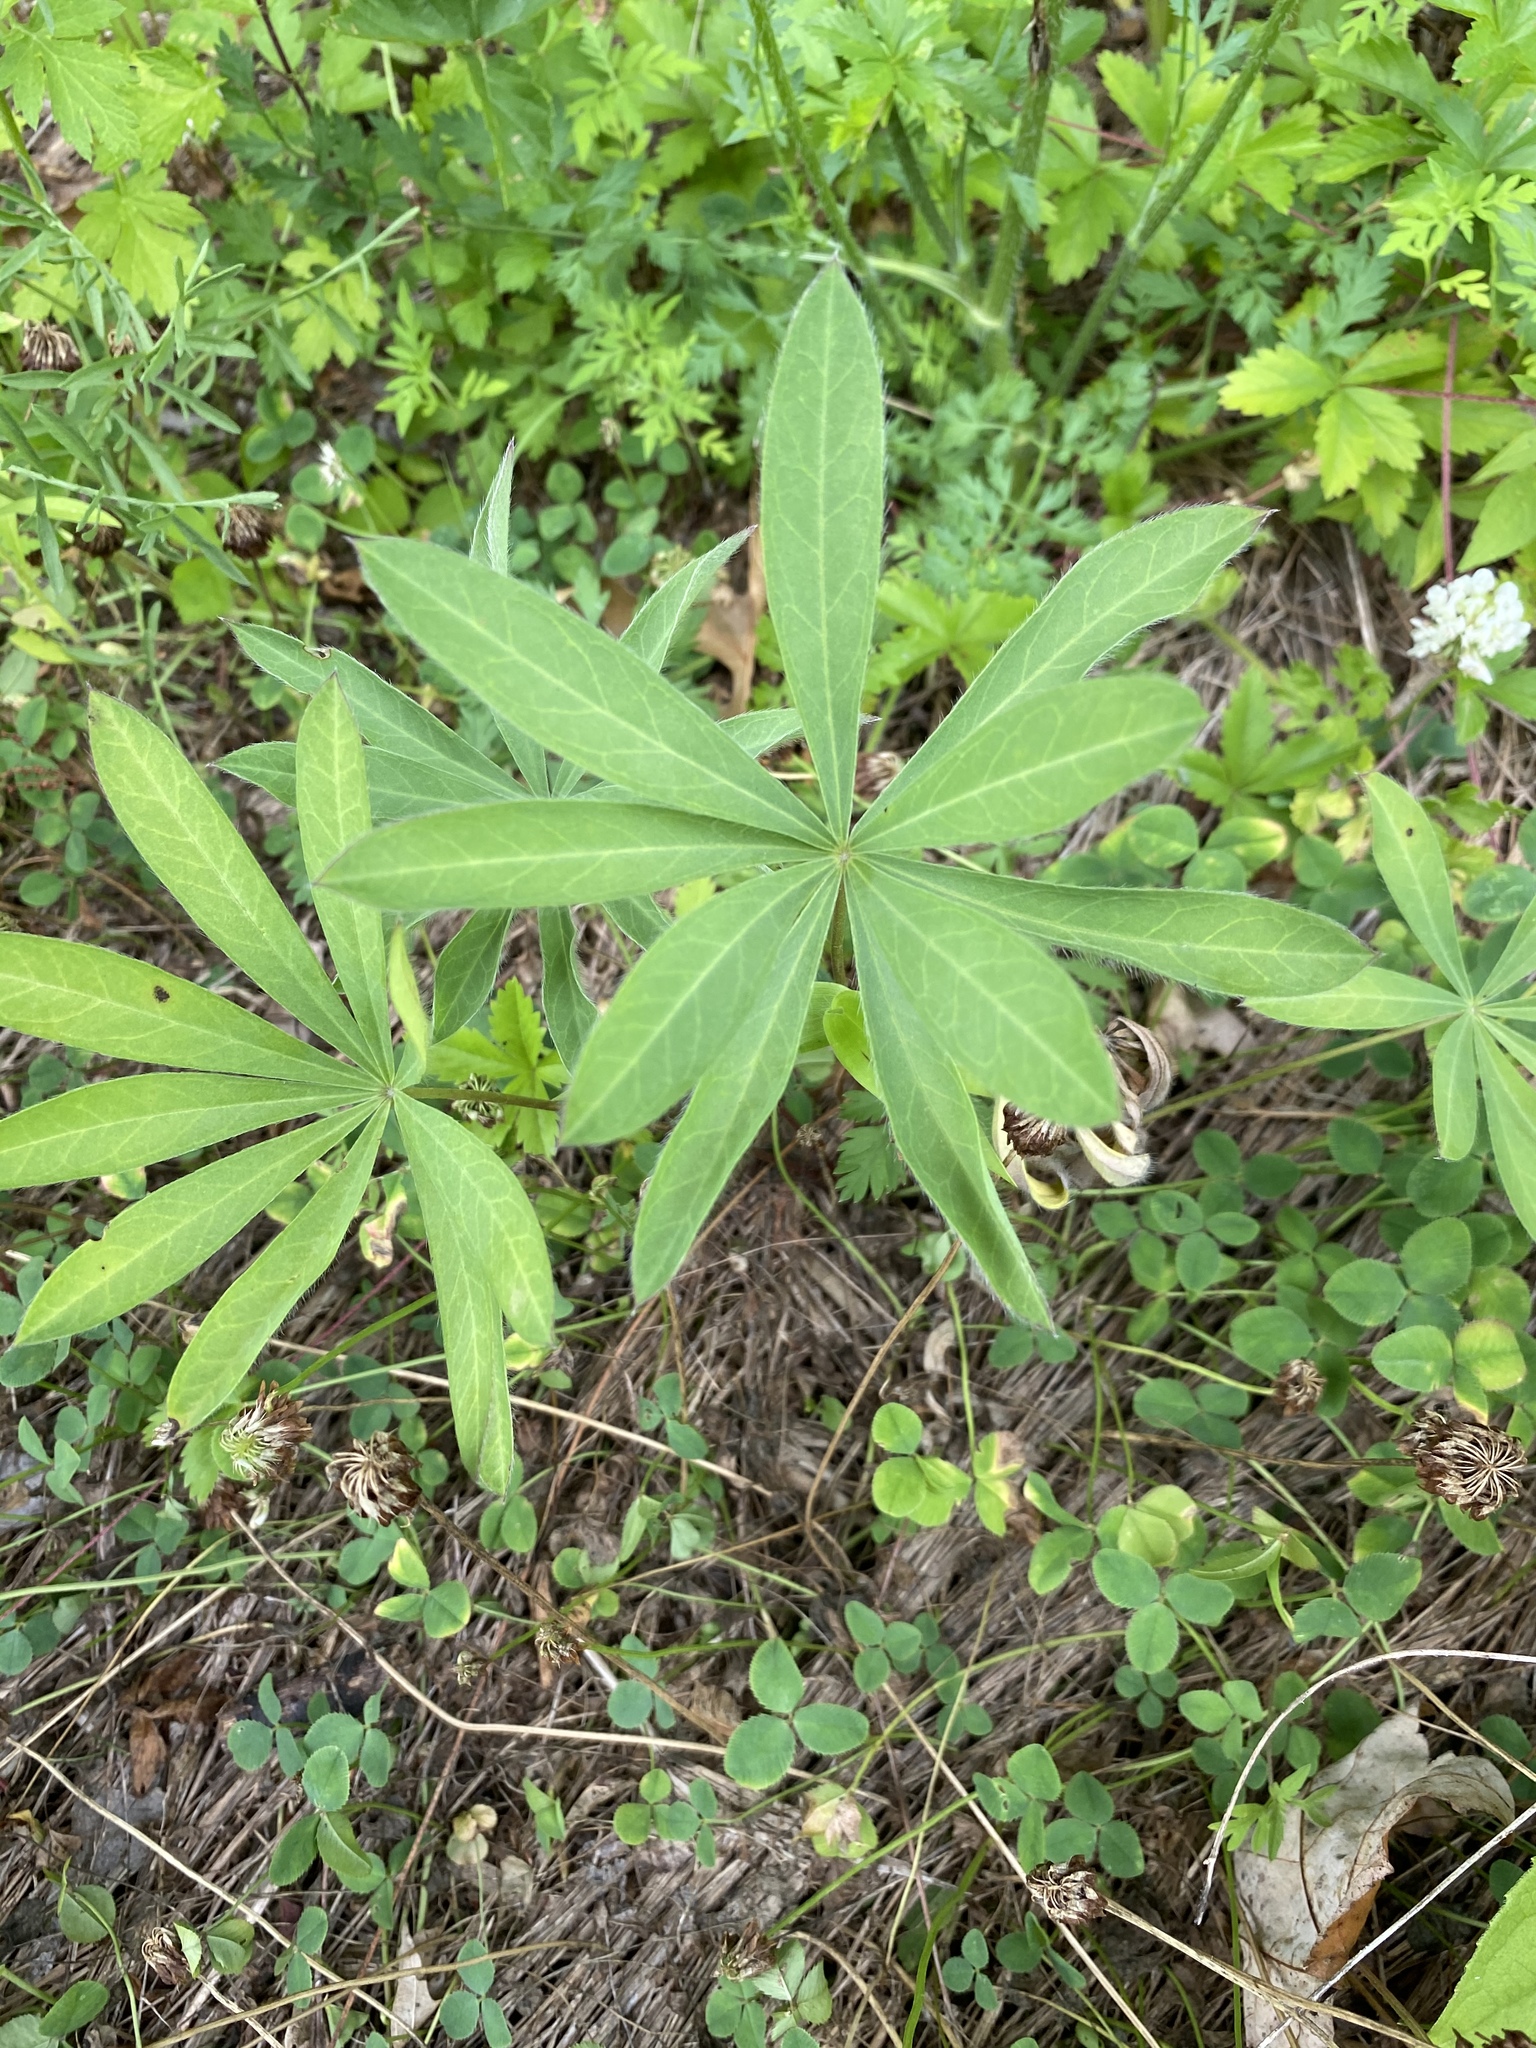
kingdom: Plantae
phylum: Tracheophyta
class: Magnoliopsida
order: Fabales
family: Fabaceae
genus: Lupinus
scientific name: Lupinus polyphyllus
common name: Garden lupin
